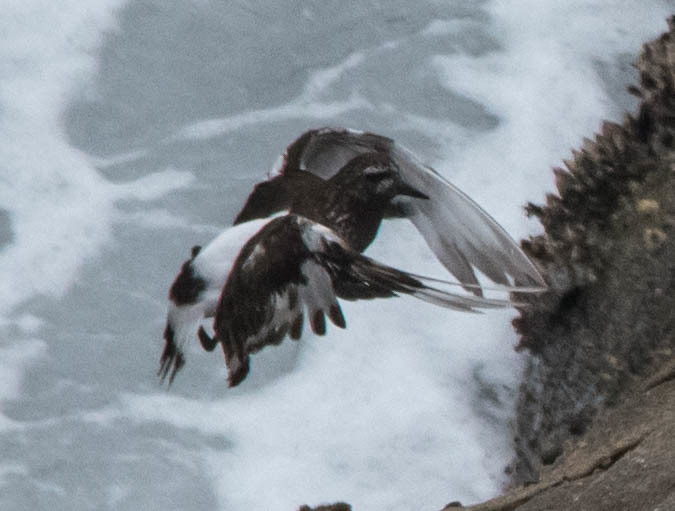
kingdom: Animalia
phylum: Chordata
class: Aves
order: Charadriiformes
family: Scolopacidae
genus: Arenaria
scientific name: Arenaria melanocephala
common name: Black turnstone
